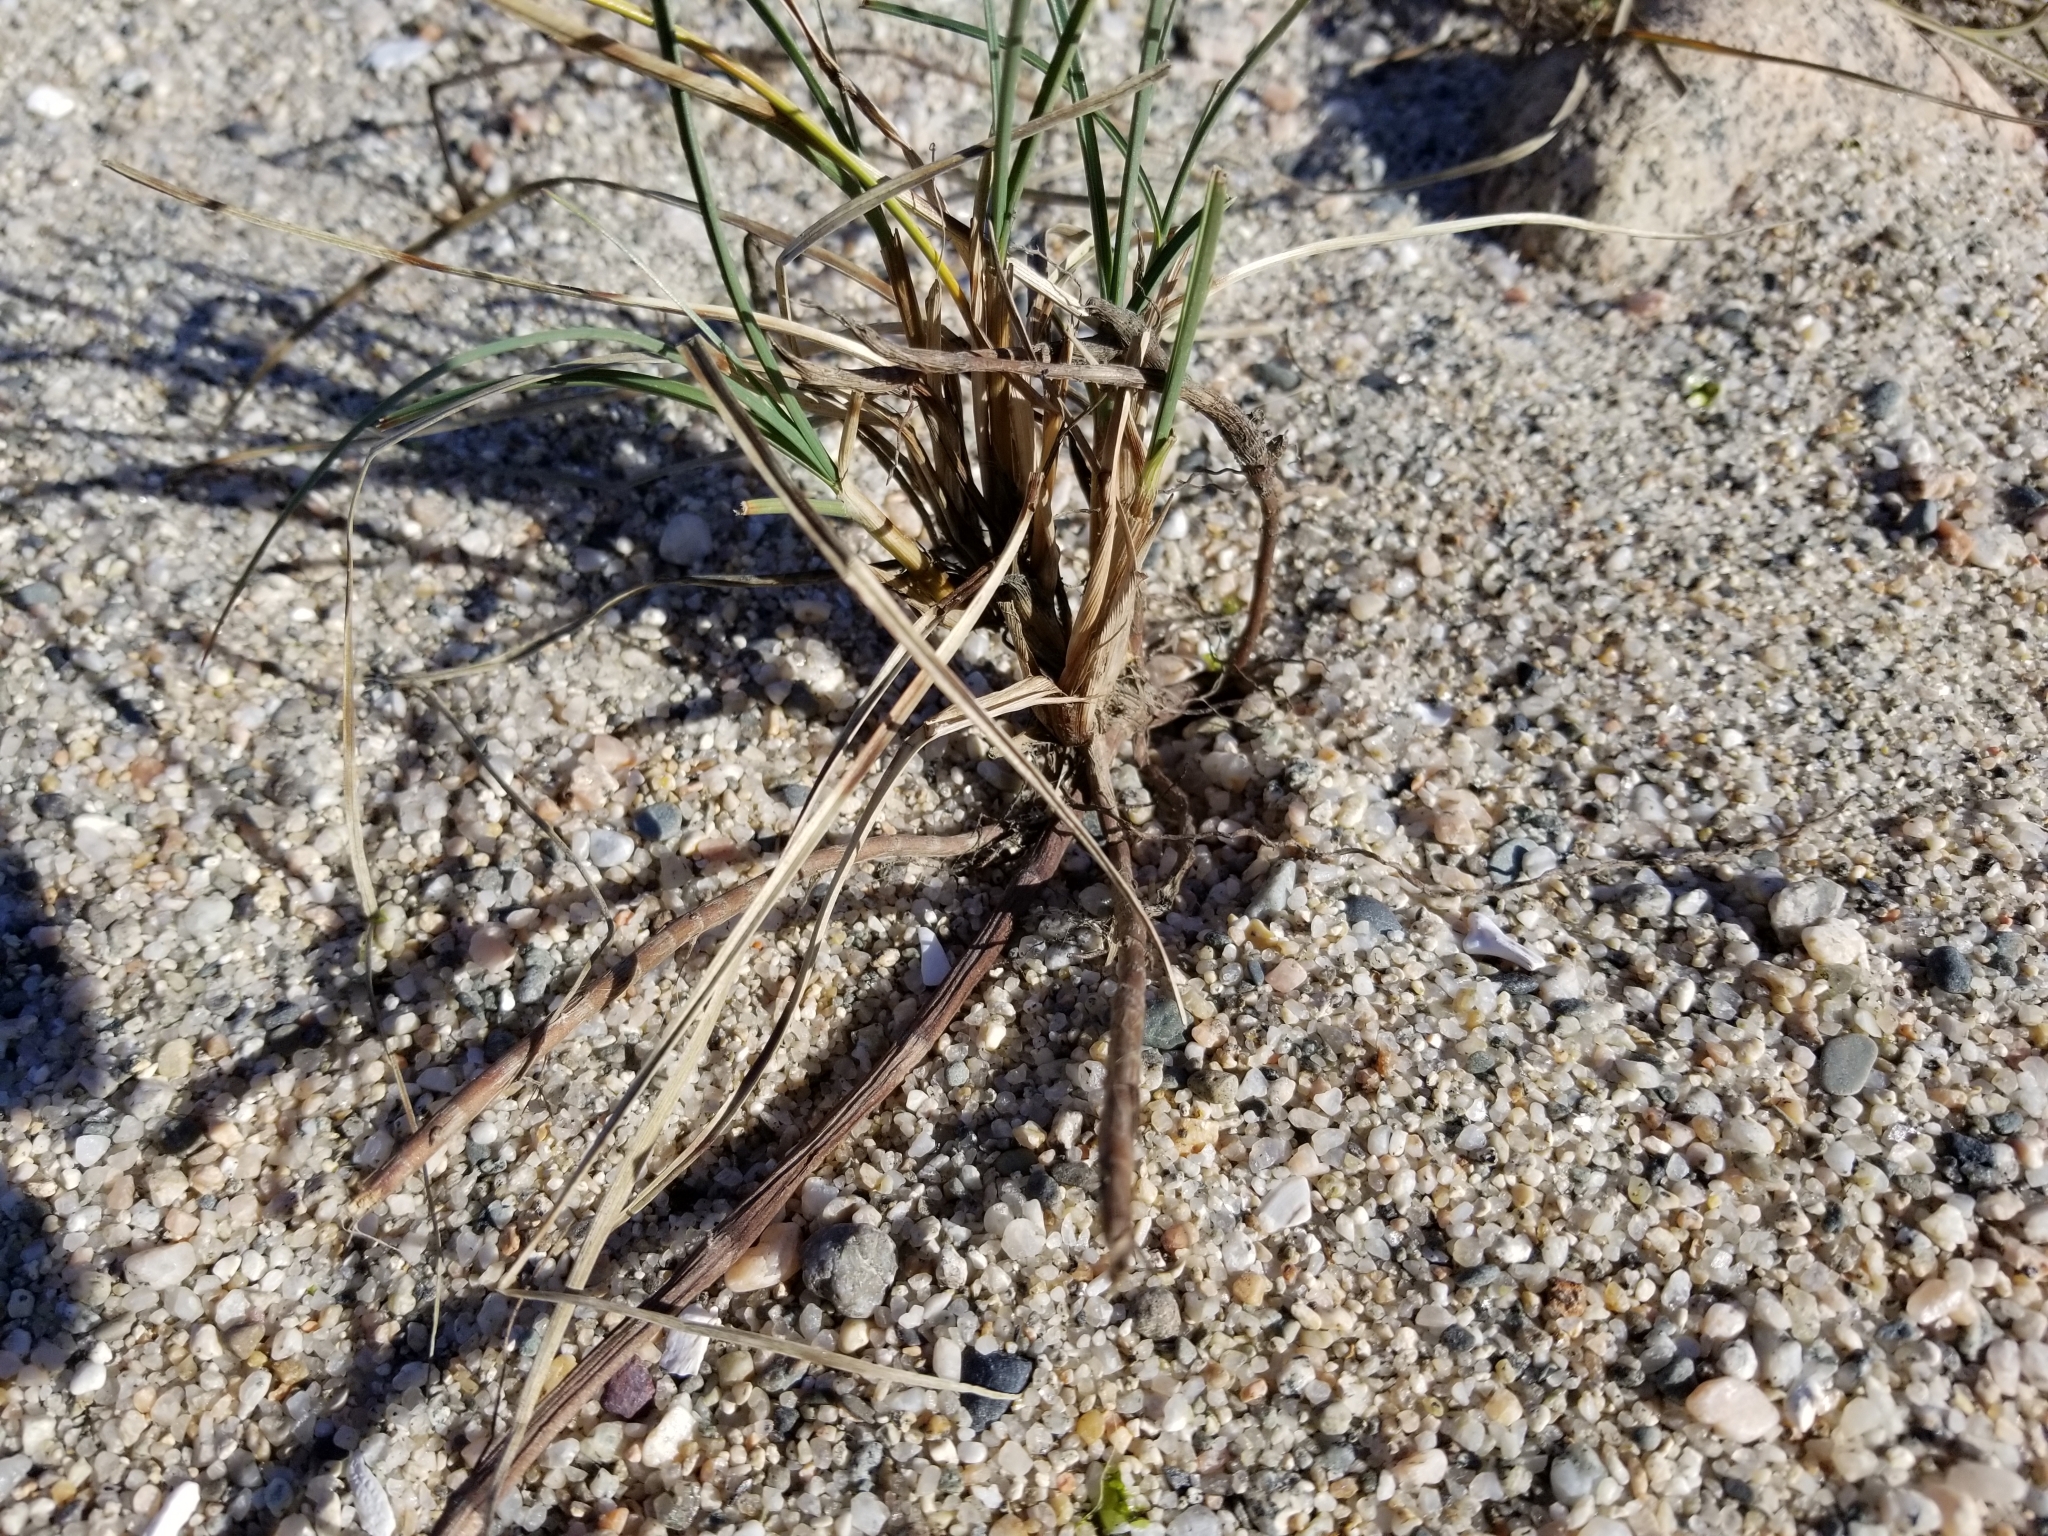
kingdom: Plantae
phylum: Tracheophyta
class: Liliopsida
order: Poales
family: Cyperaceae
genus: Carex
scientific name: Carex pumila
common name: Dwarf sedge
